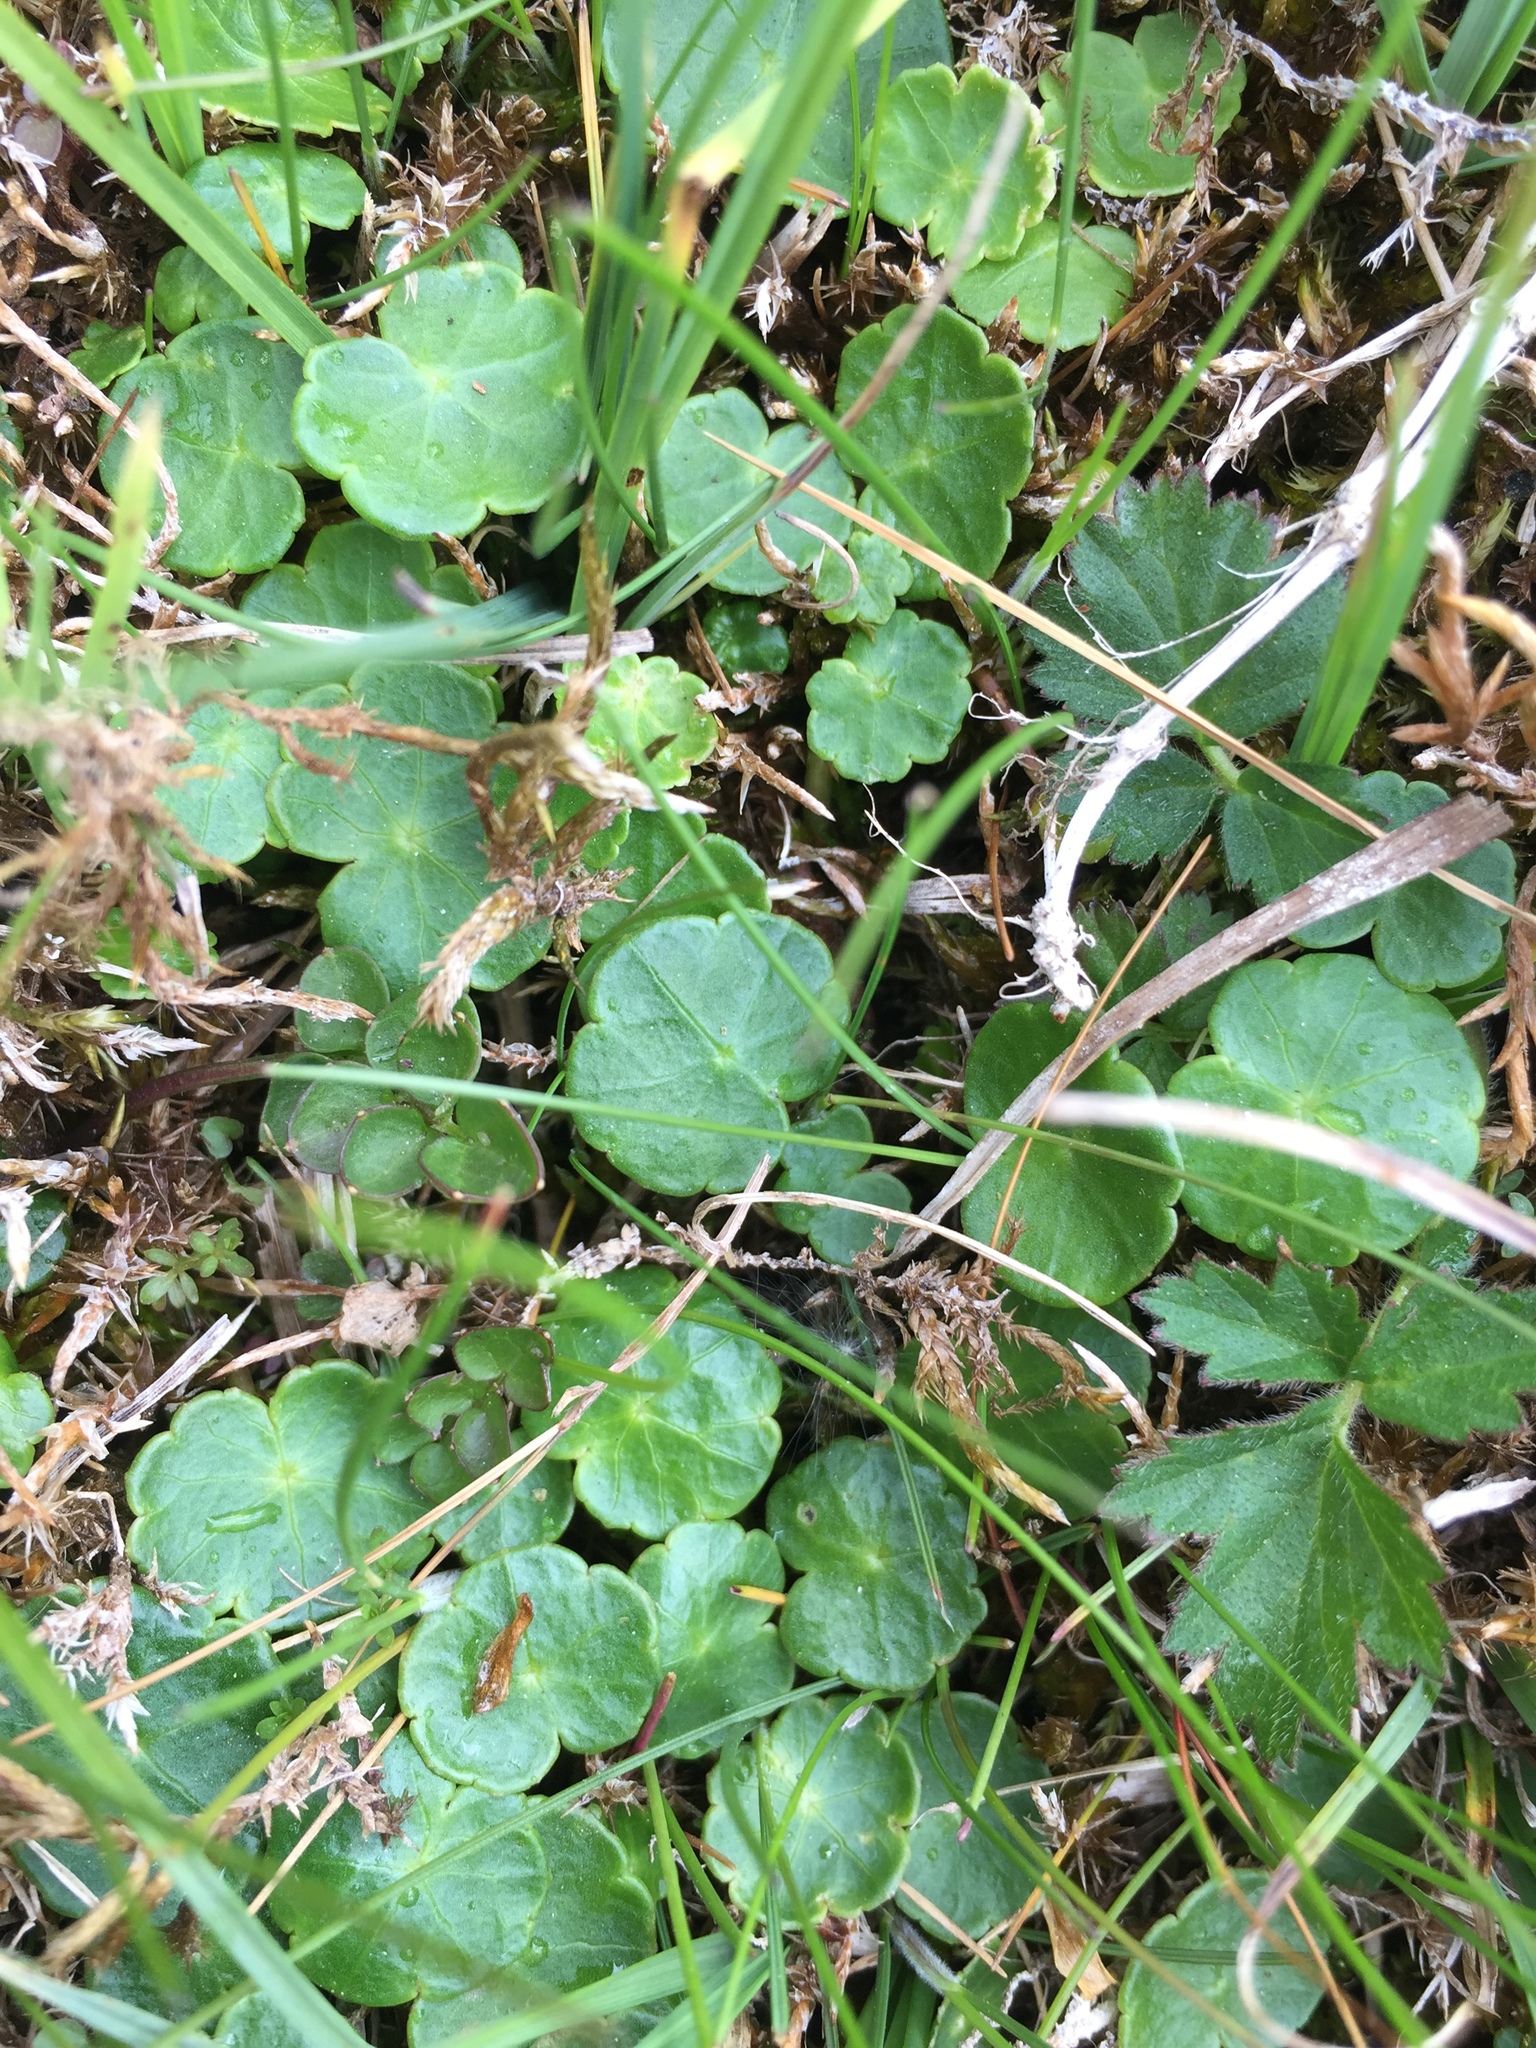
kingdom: Plantae
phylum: Tracheophyta
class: Magnoliopsida
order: Apiales
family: Araliaceae
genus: Hydrocotyle
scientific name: Hydrocotyle vulgaris
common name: Marsh pennywort
